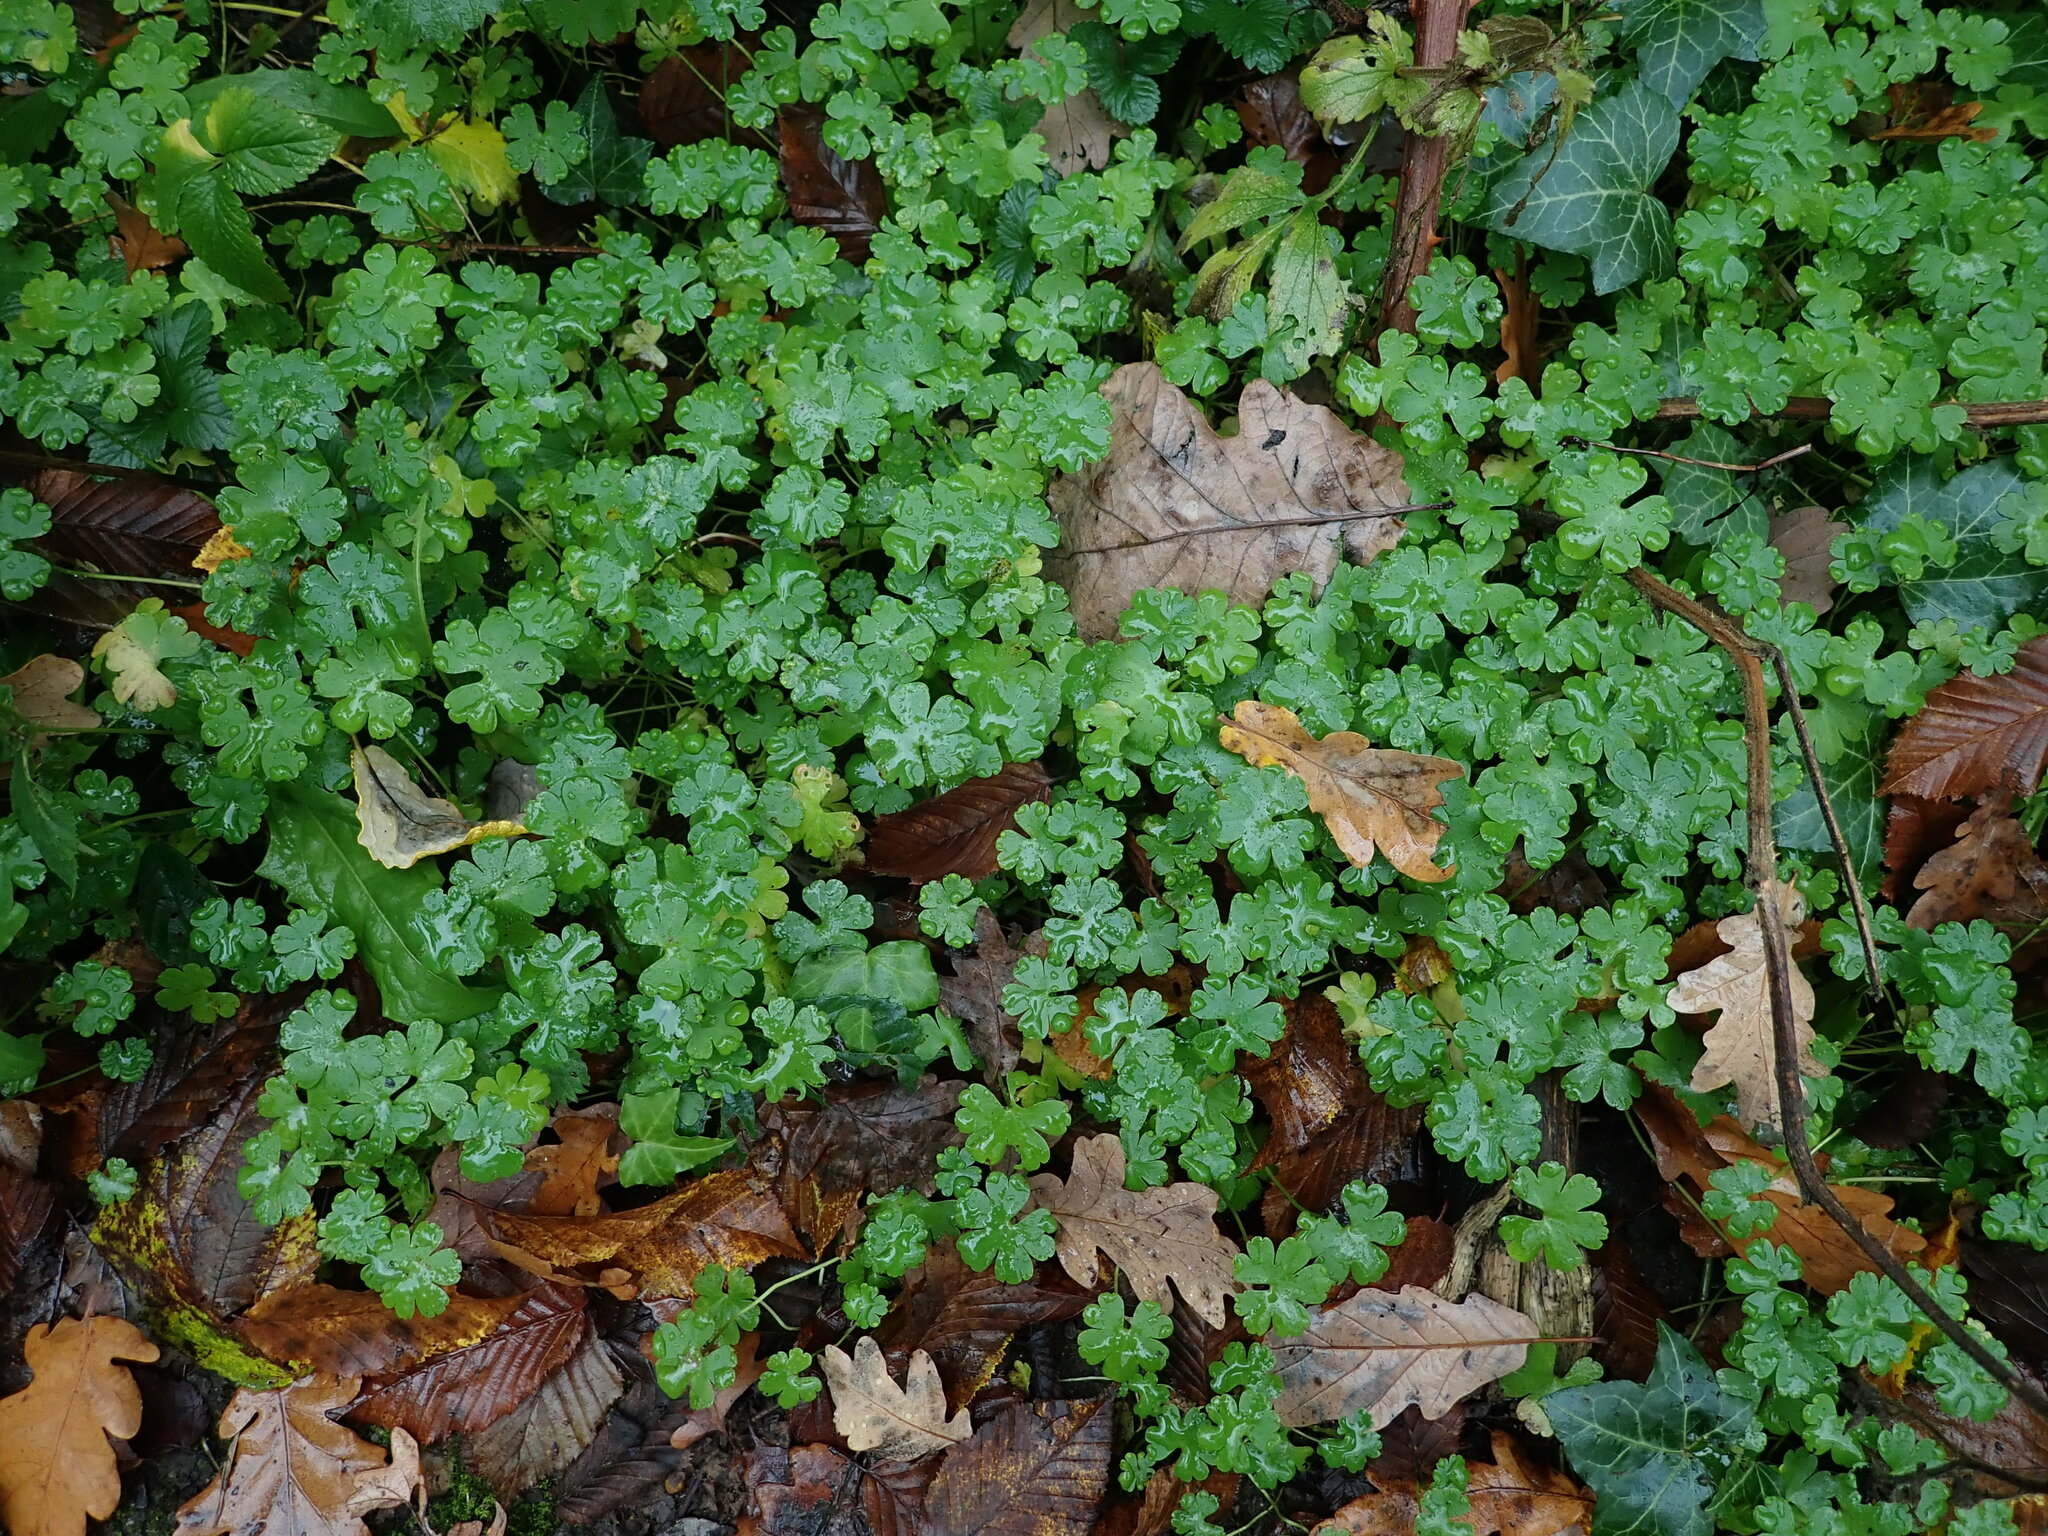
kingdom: Plantae
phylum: Tracheophyta
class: Magnoliopsida
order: Geraniales
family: Geraniaceae
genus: Geranium
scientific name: Geranium lucidum
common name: Shining crane's-bill
